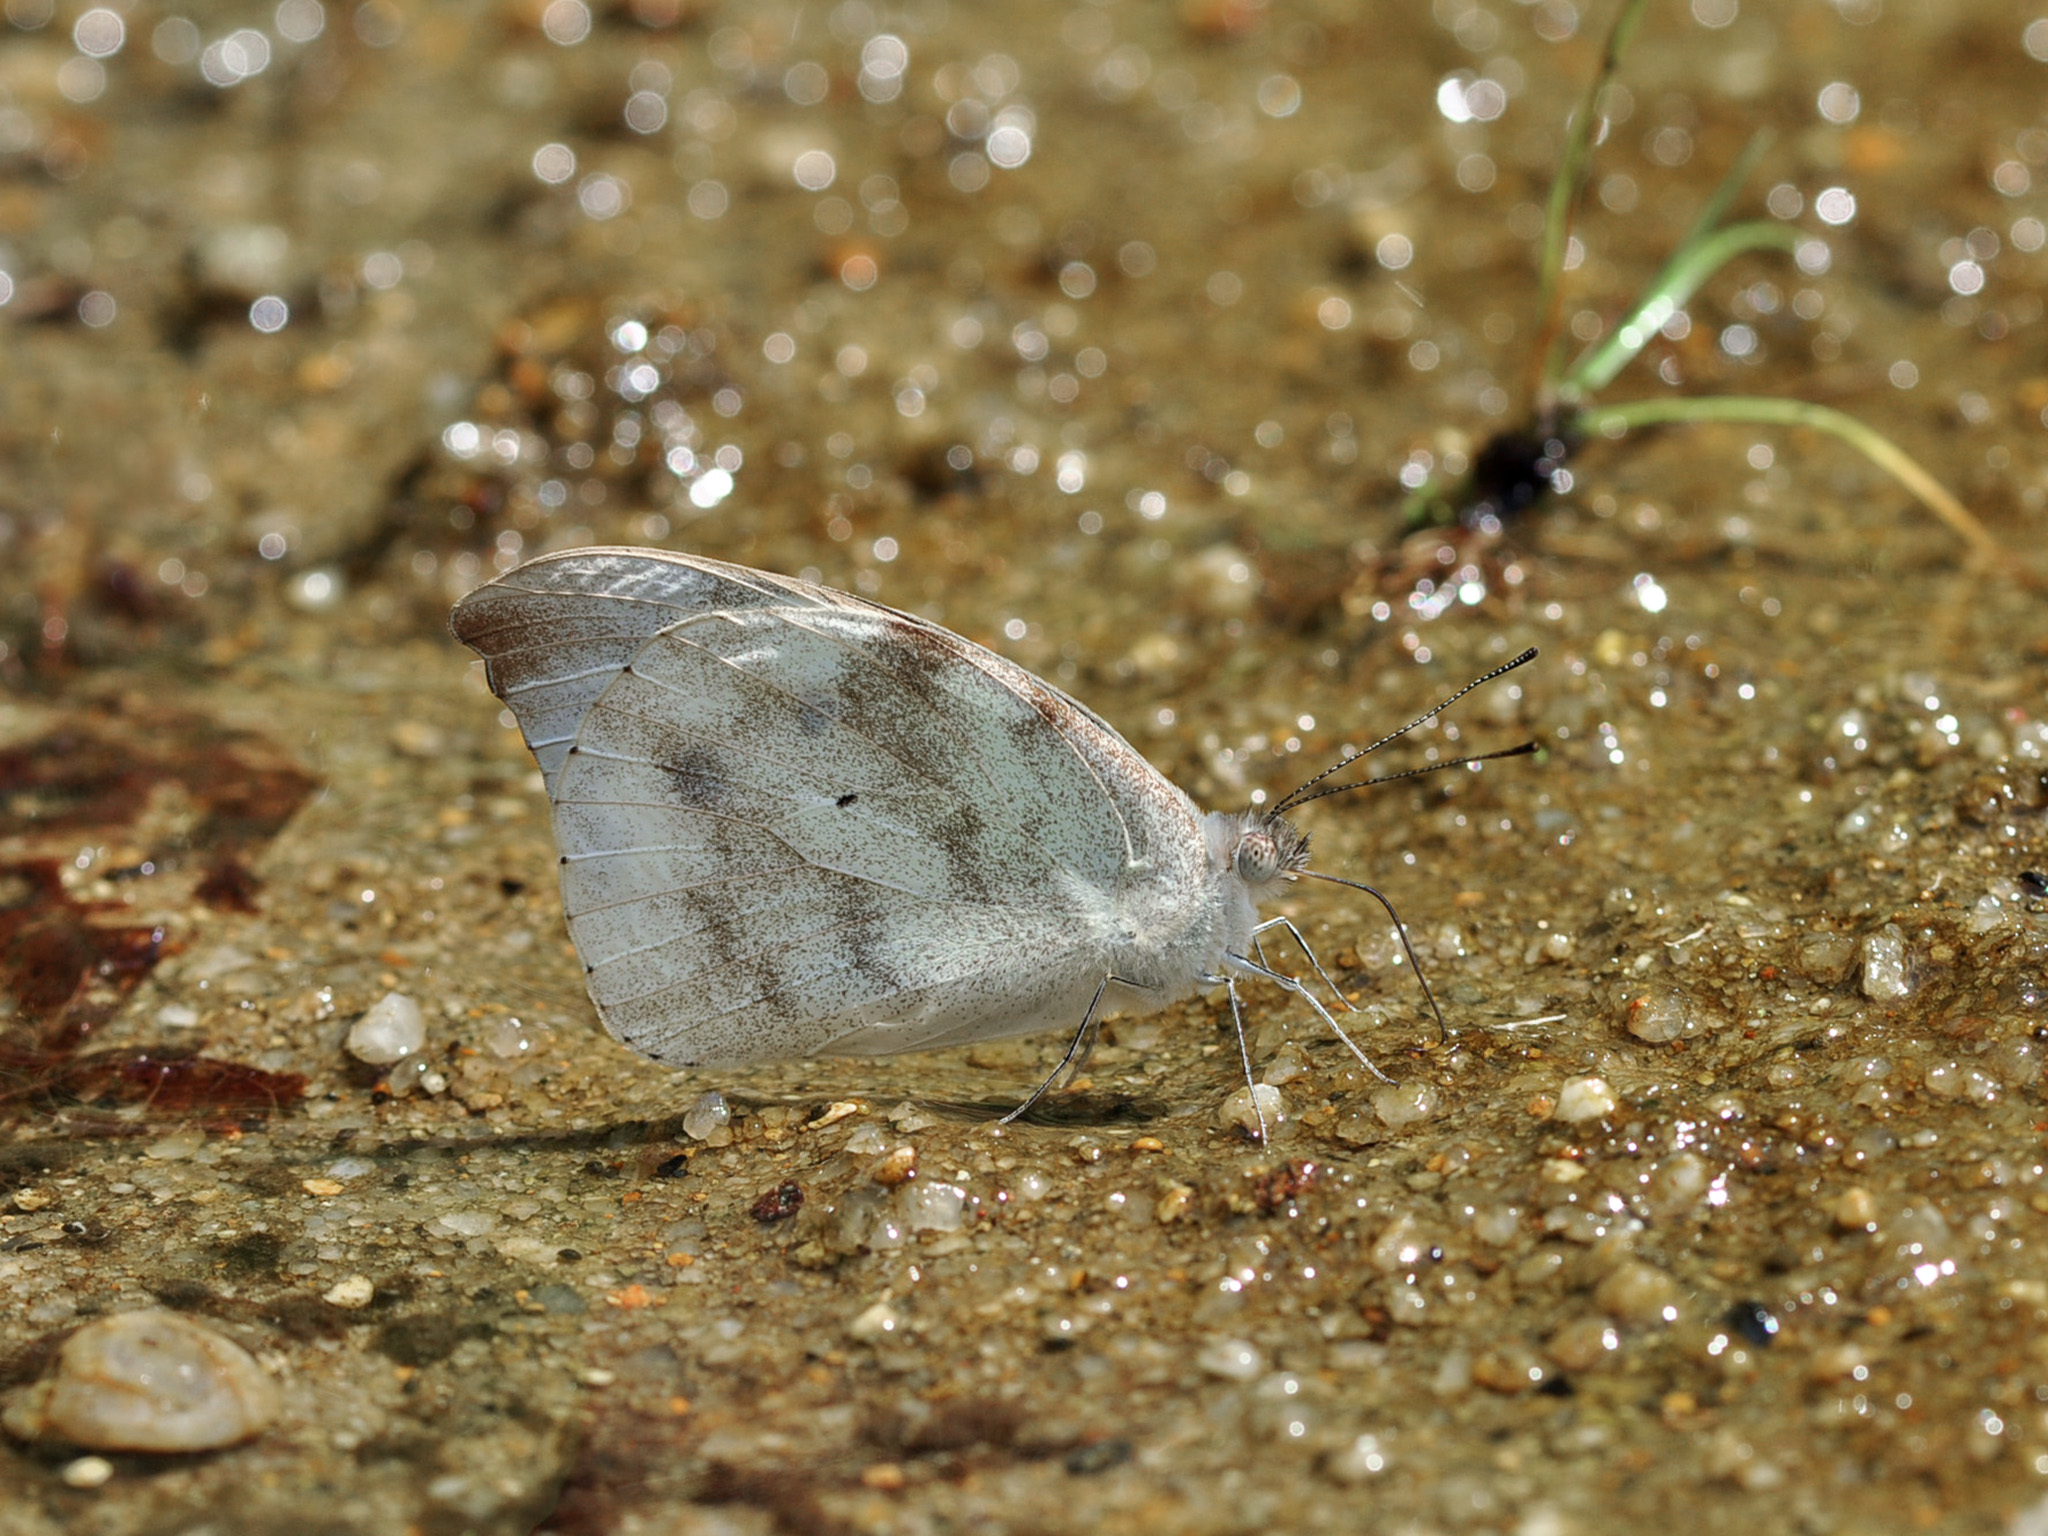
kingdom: Animalia
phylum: Arthropoda
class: Insecta
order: Lepidoptera
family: Pieridae
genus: Appias
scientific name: Appias lalassis
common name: Burmese puffin
